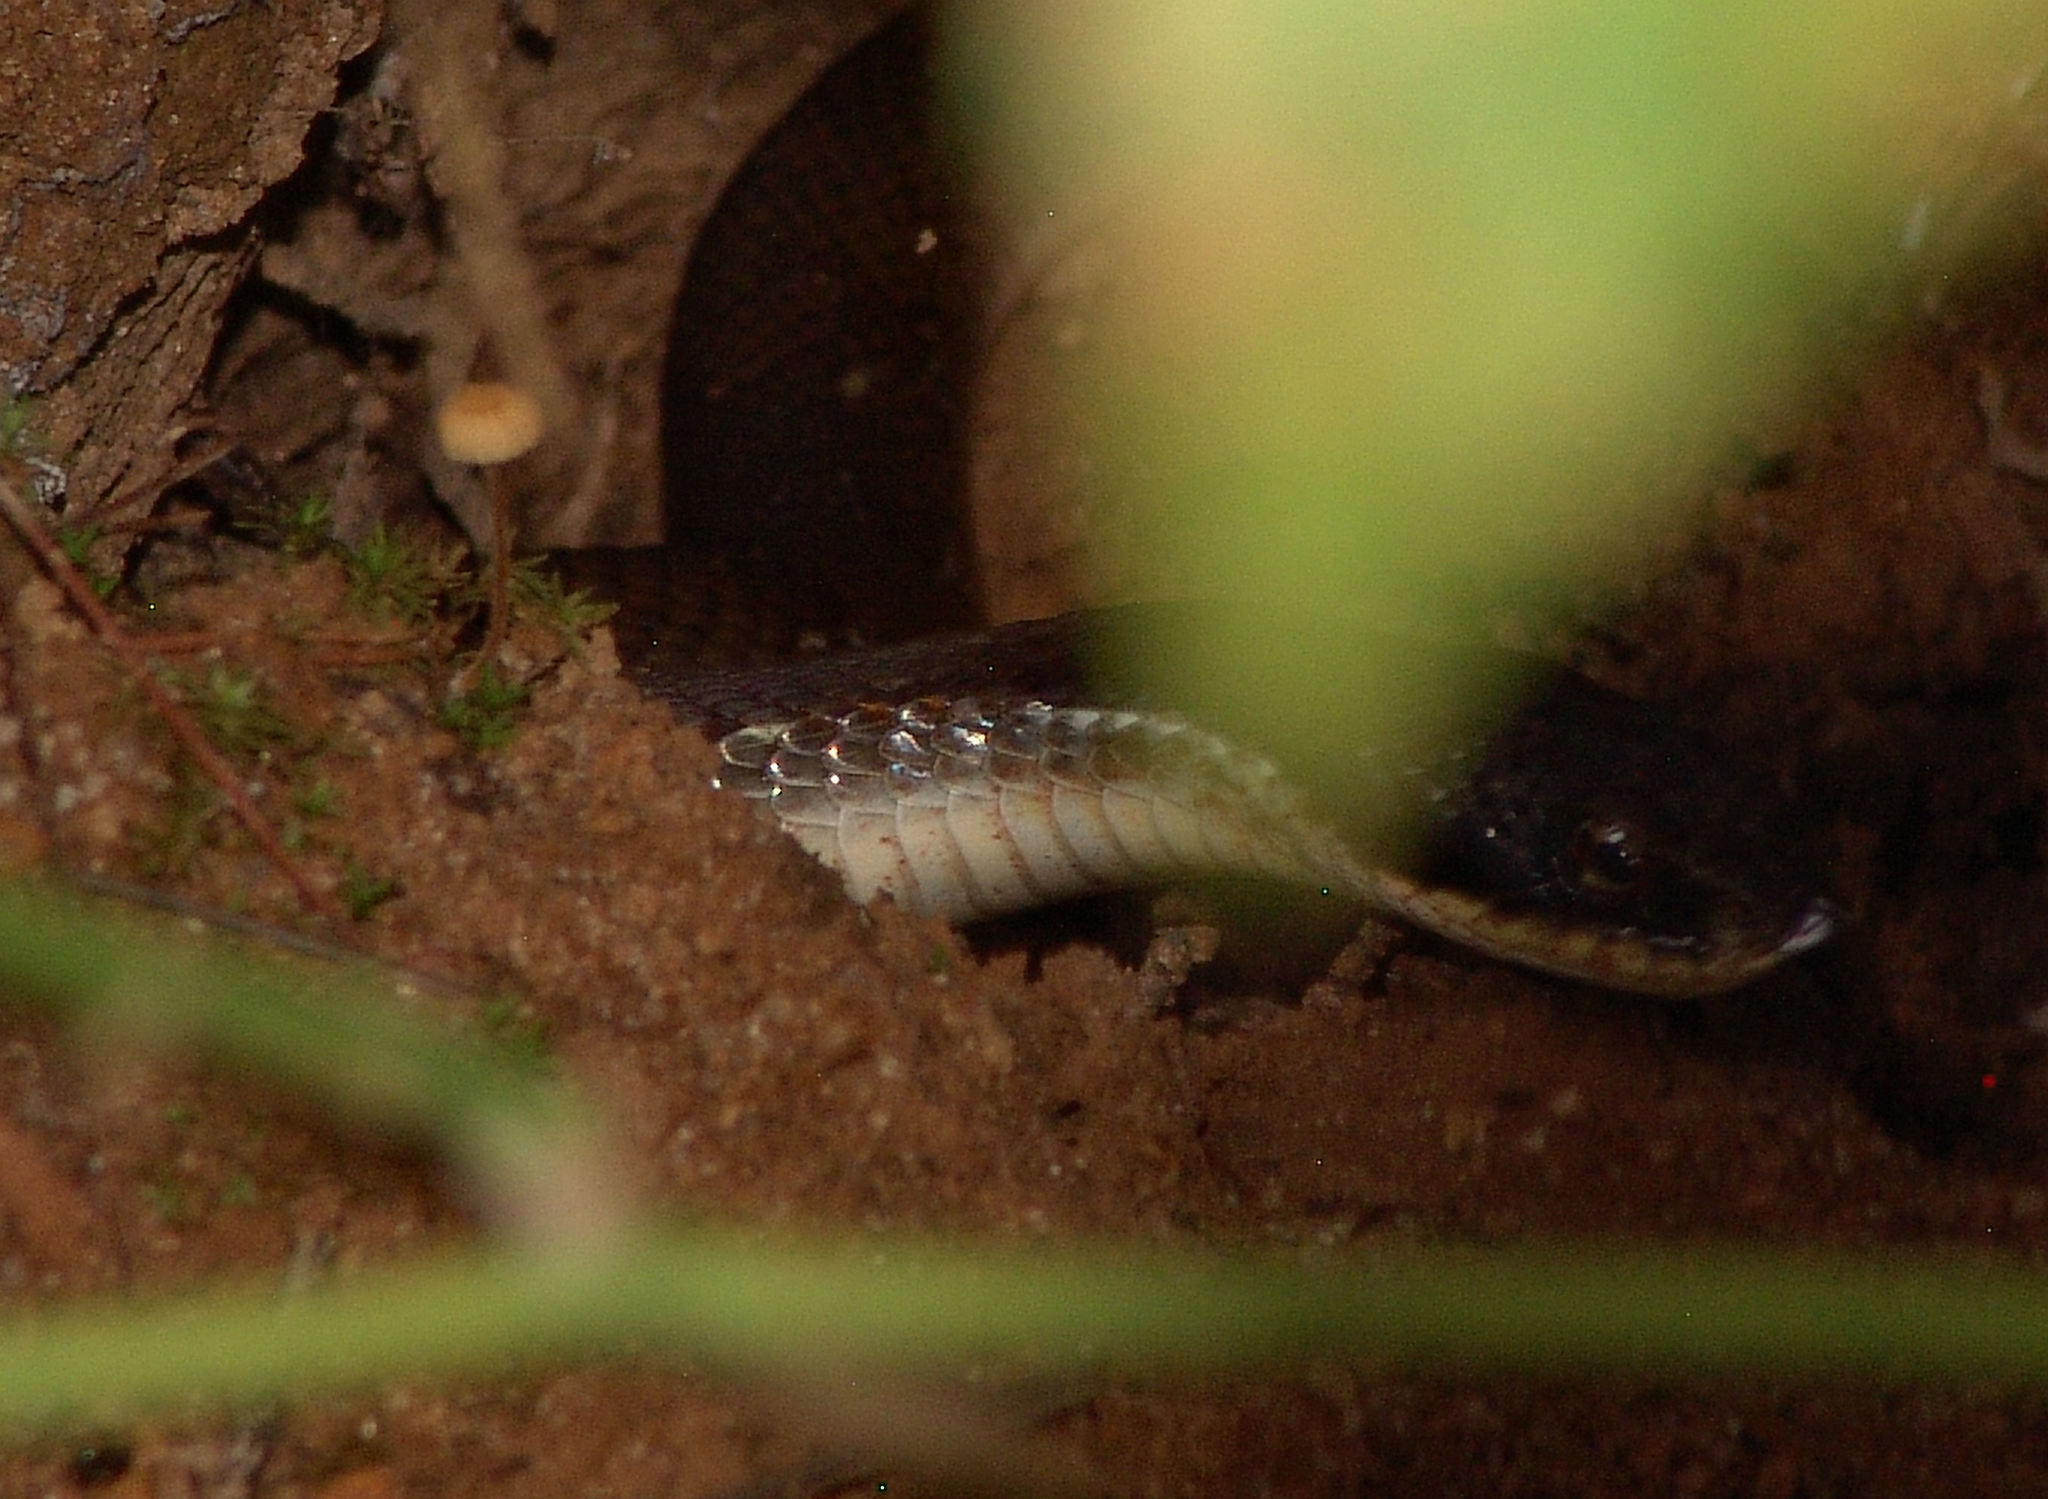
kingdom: Animalia
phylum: Chordata
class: Squamata
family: Colubridae
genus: Heterodon
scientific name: Heterodon platirhinos
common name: Eastern hognose snake
